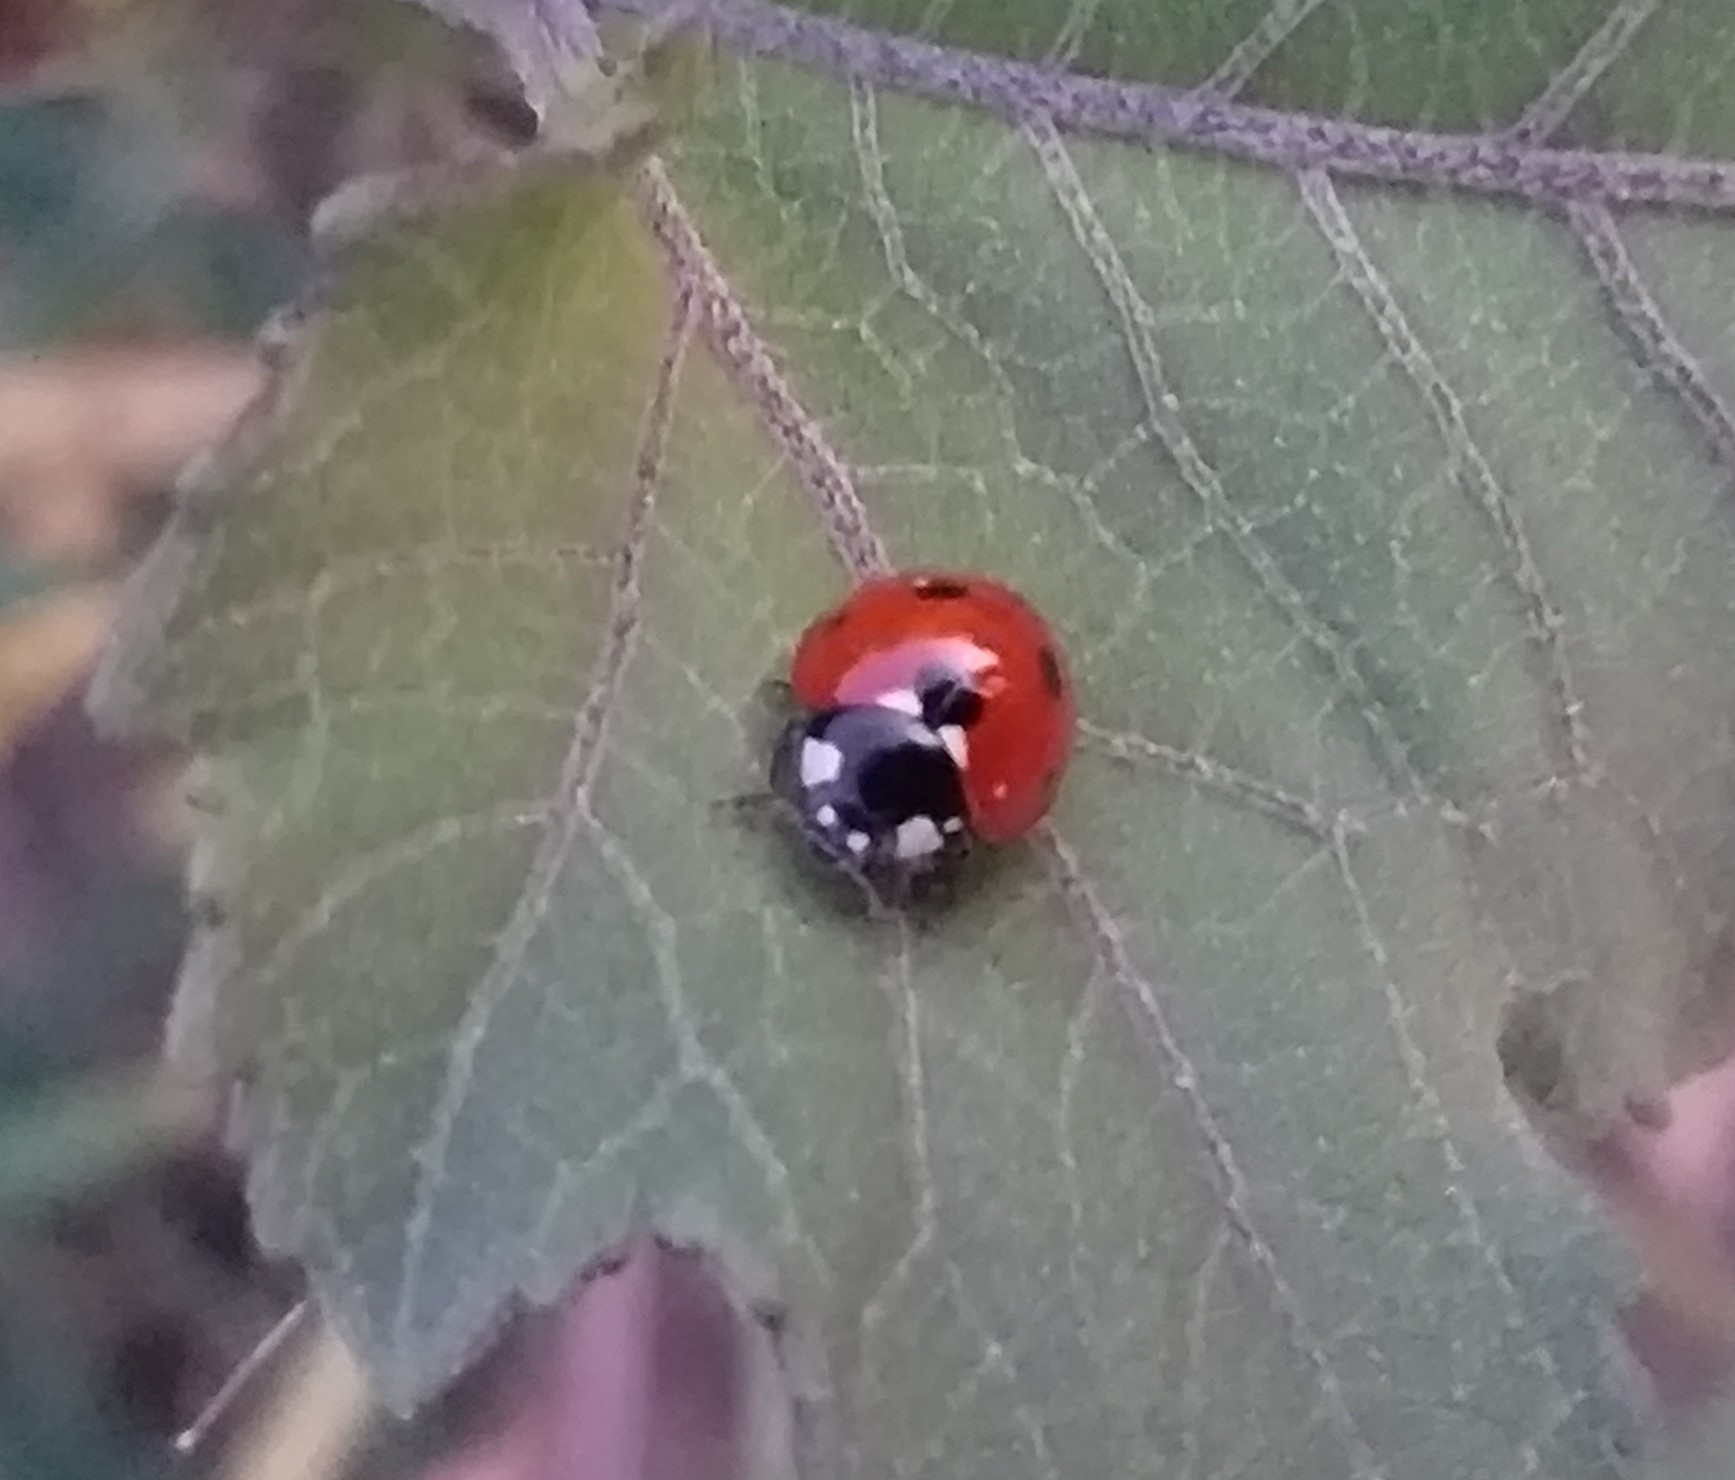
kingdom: Animalia
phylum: Arthropoda
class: Insecta
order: Coleoptera
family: Coccinellidae
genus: Coccinella
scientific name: Coccinella septempunctata
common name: Sevenspotted lady beetle
